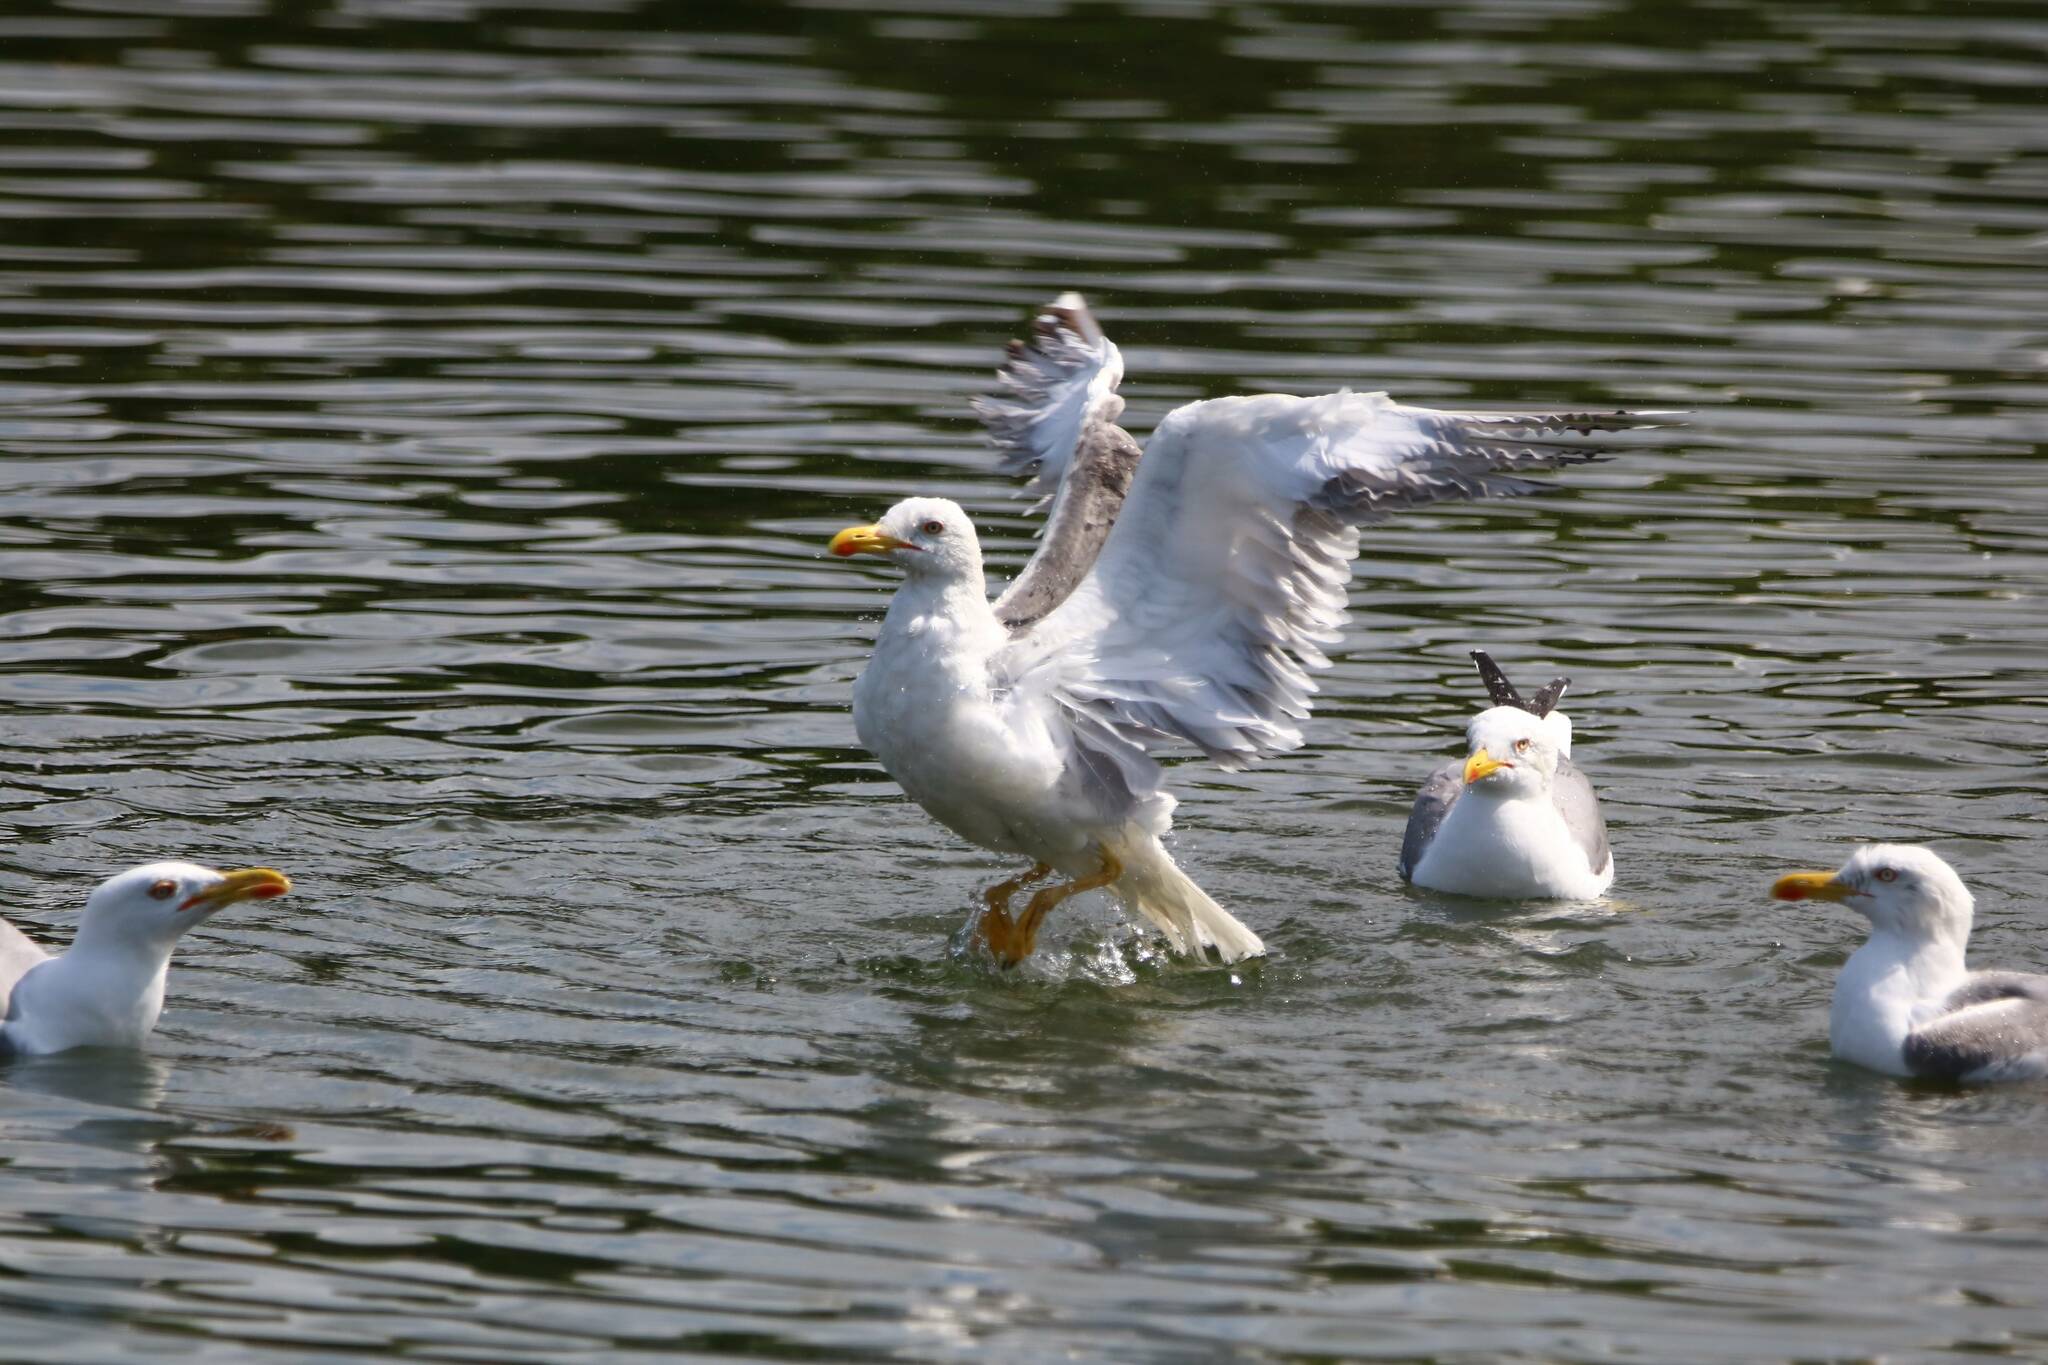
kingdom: Animalia
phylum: Chordata
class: Aves
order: Charadriiformes
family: Laridae
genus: Larus
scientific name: Larus michahellis
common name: Yellow-legged gull
